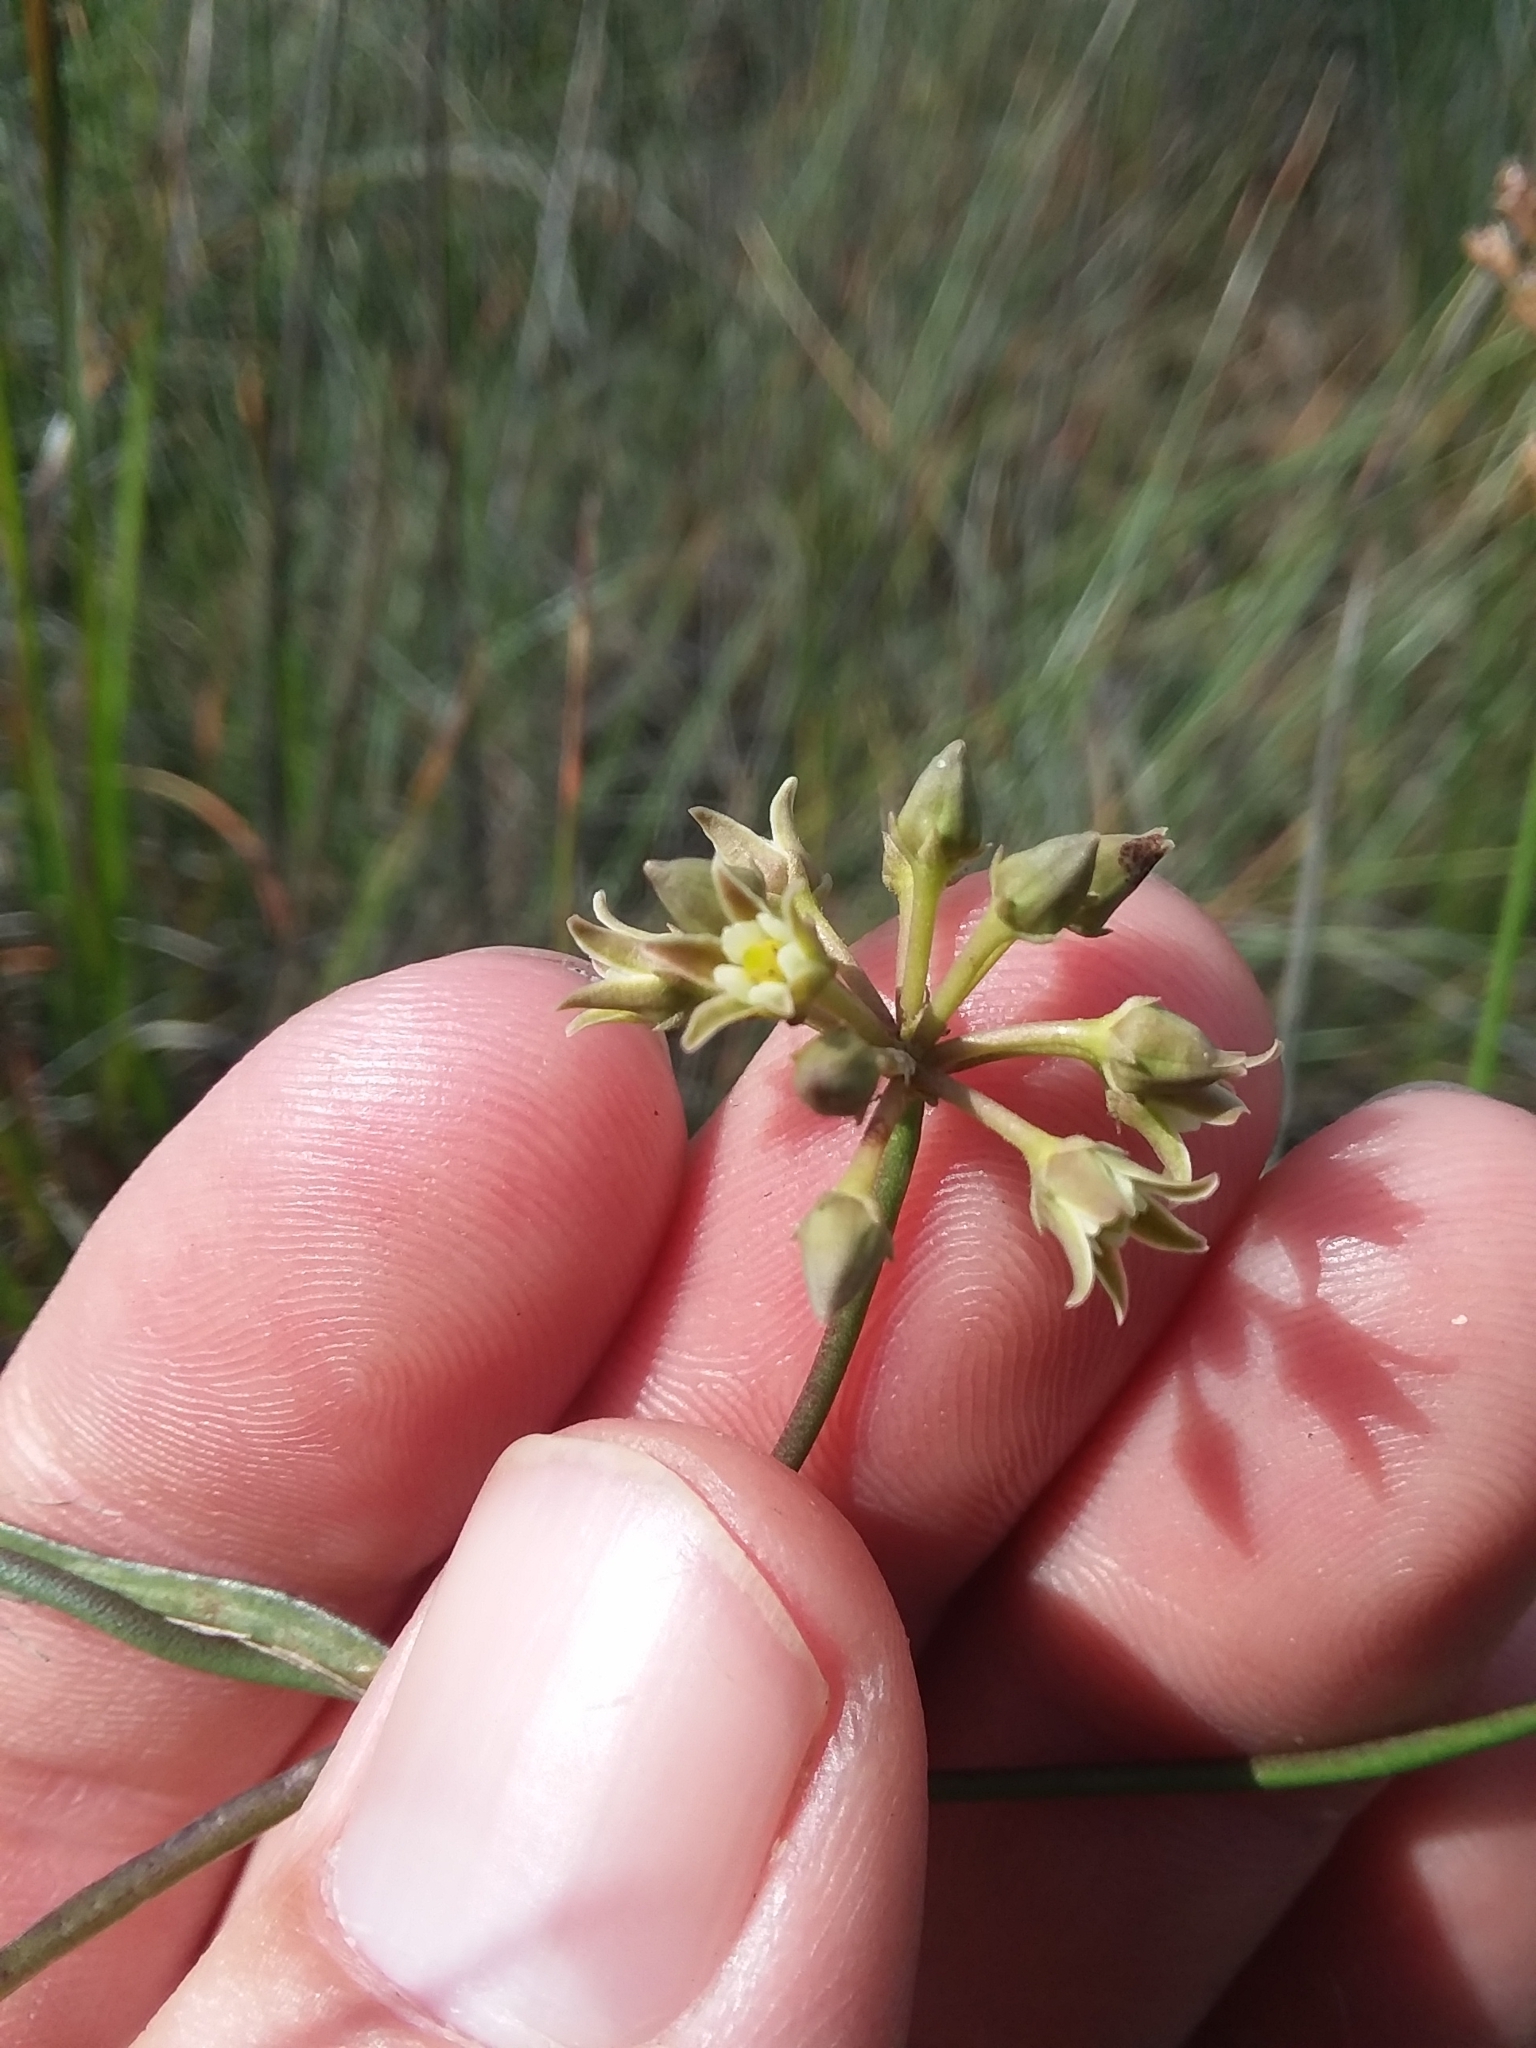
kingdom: Plantae
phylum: Tracheophyta
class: Magnoliopsida
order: Gentianales
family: Apocynaceae
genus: Pattalias
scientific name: Pattalias
